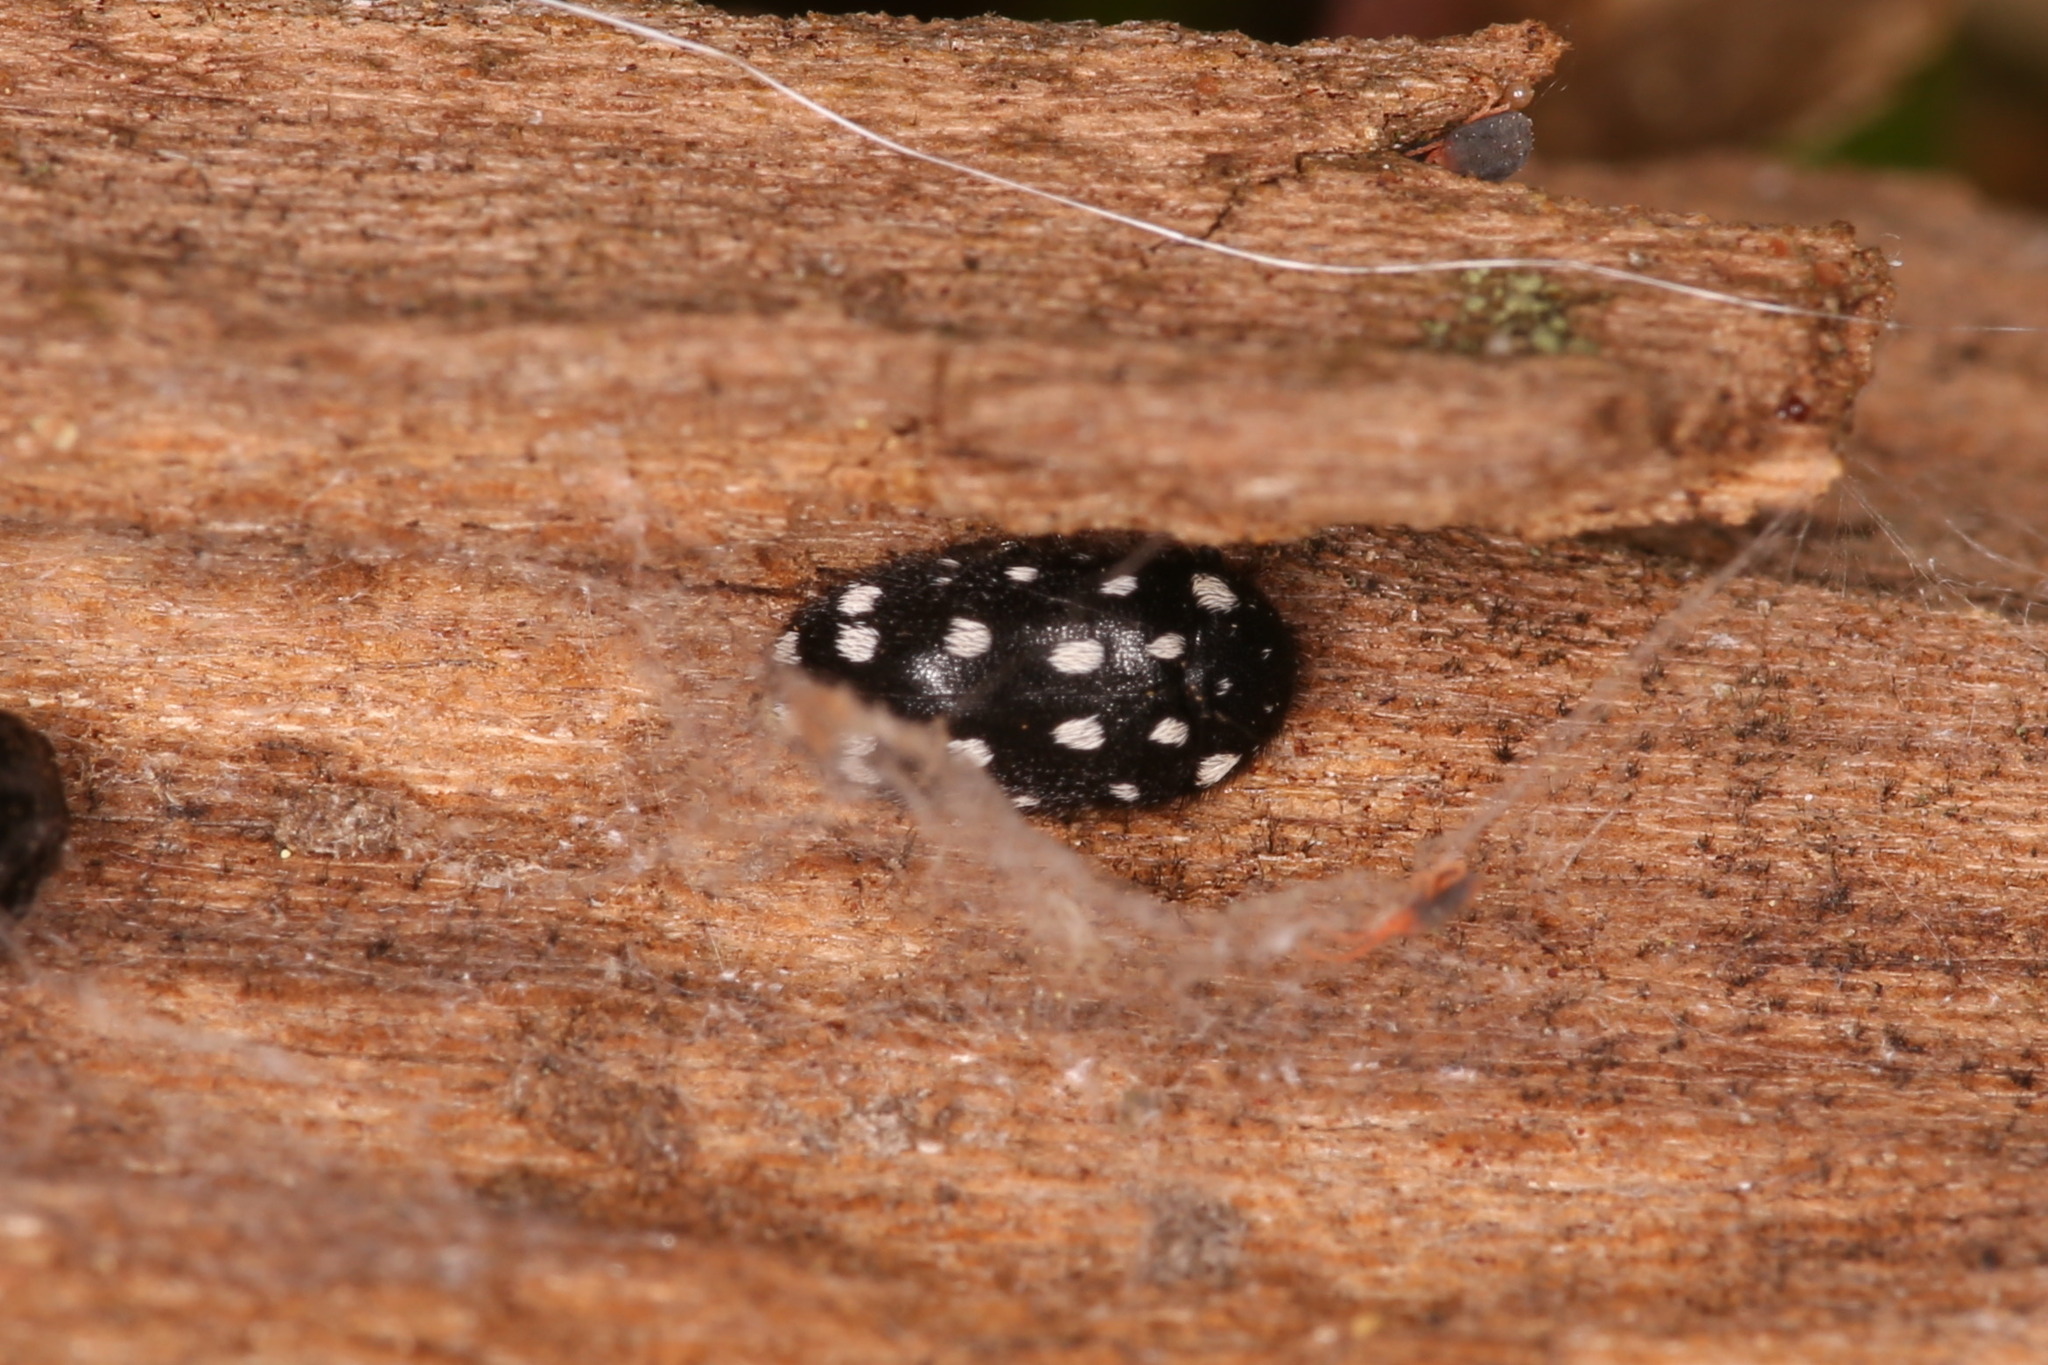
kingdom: Animalia
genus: Paranovelsis
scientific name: Paranovelsis
